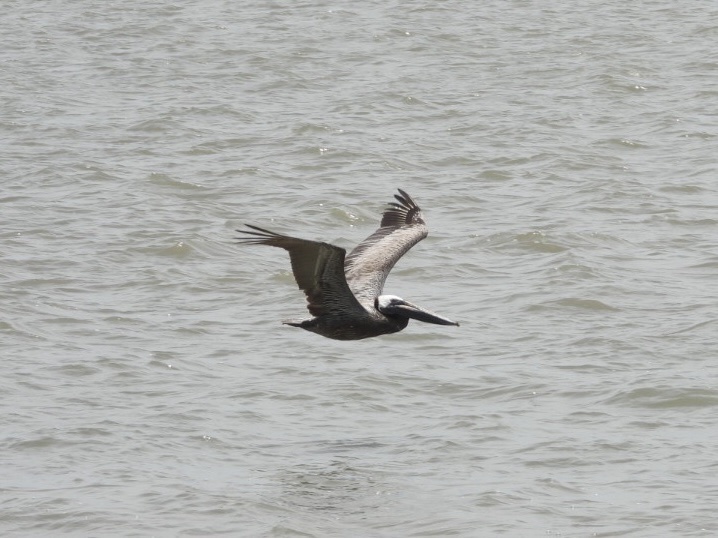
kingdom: Animalia
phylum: Chordata
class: Aves
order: Pelecaniformes
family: Pelecanidae
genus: Pelecanus
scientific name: Pelecanus occidentalis
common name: Brown pelican
